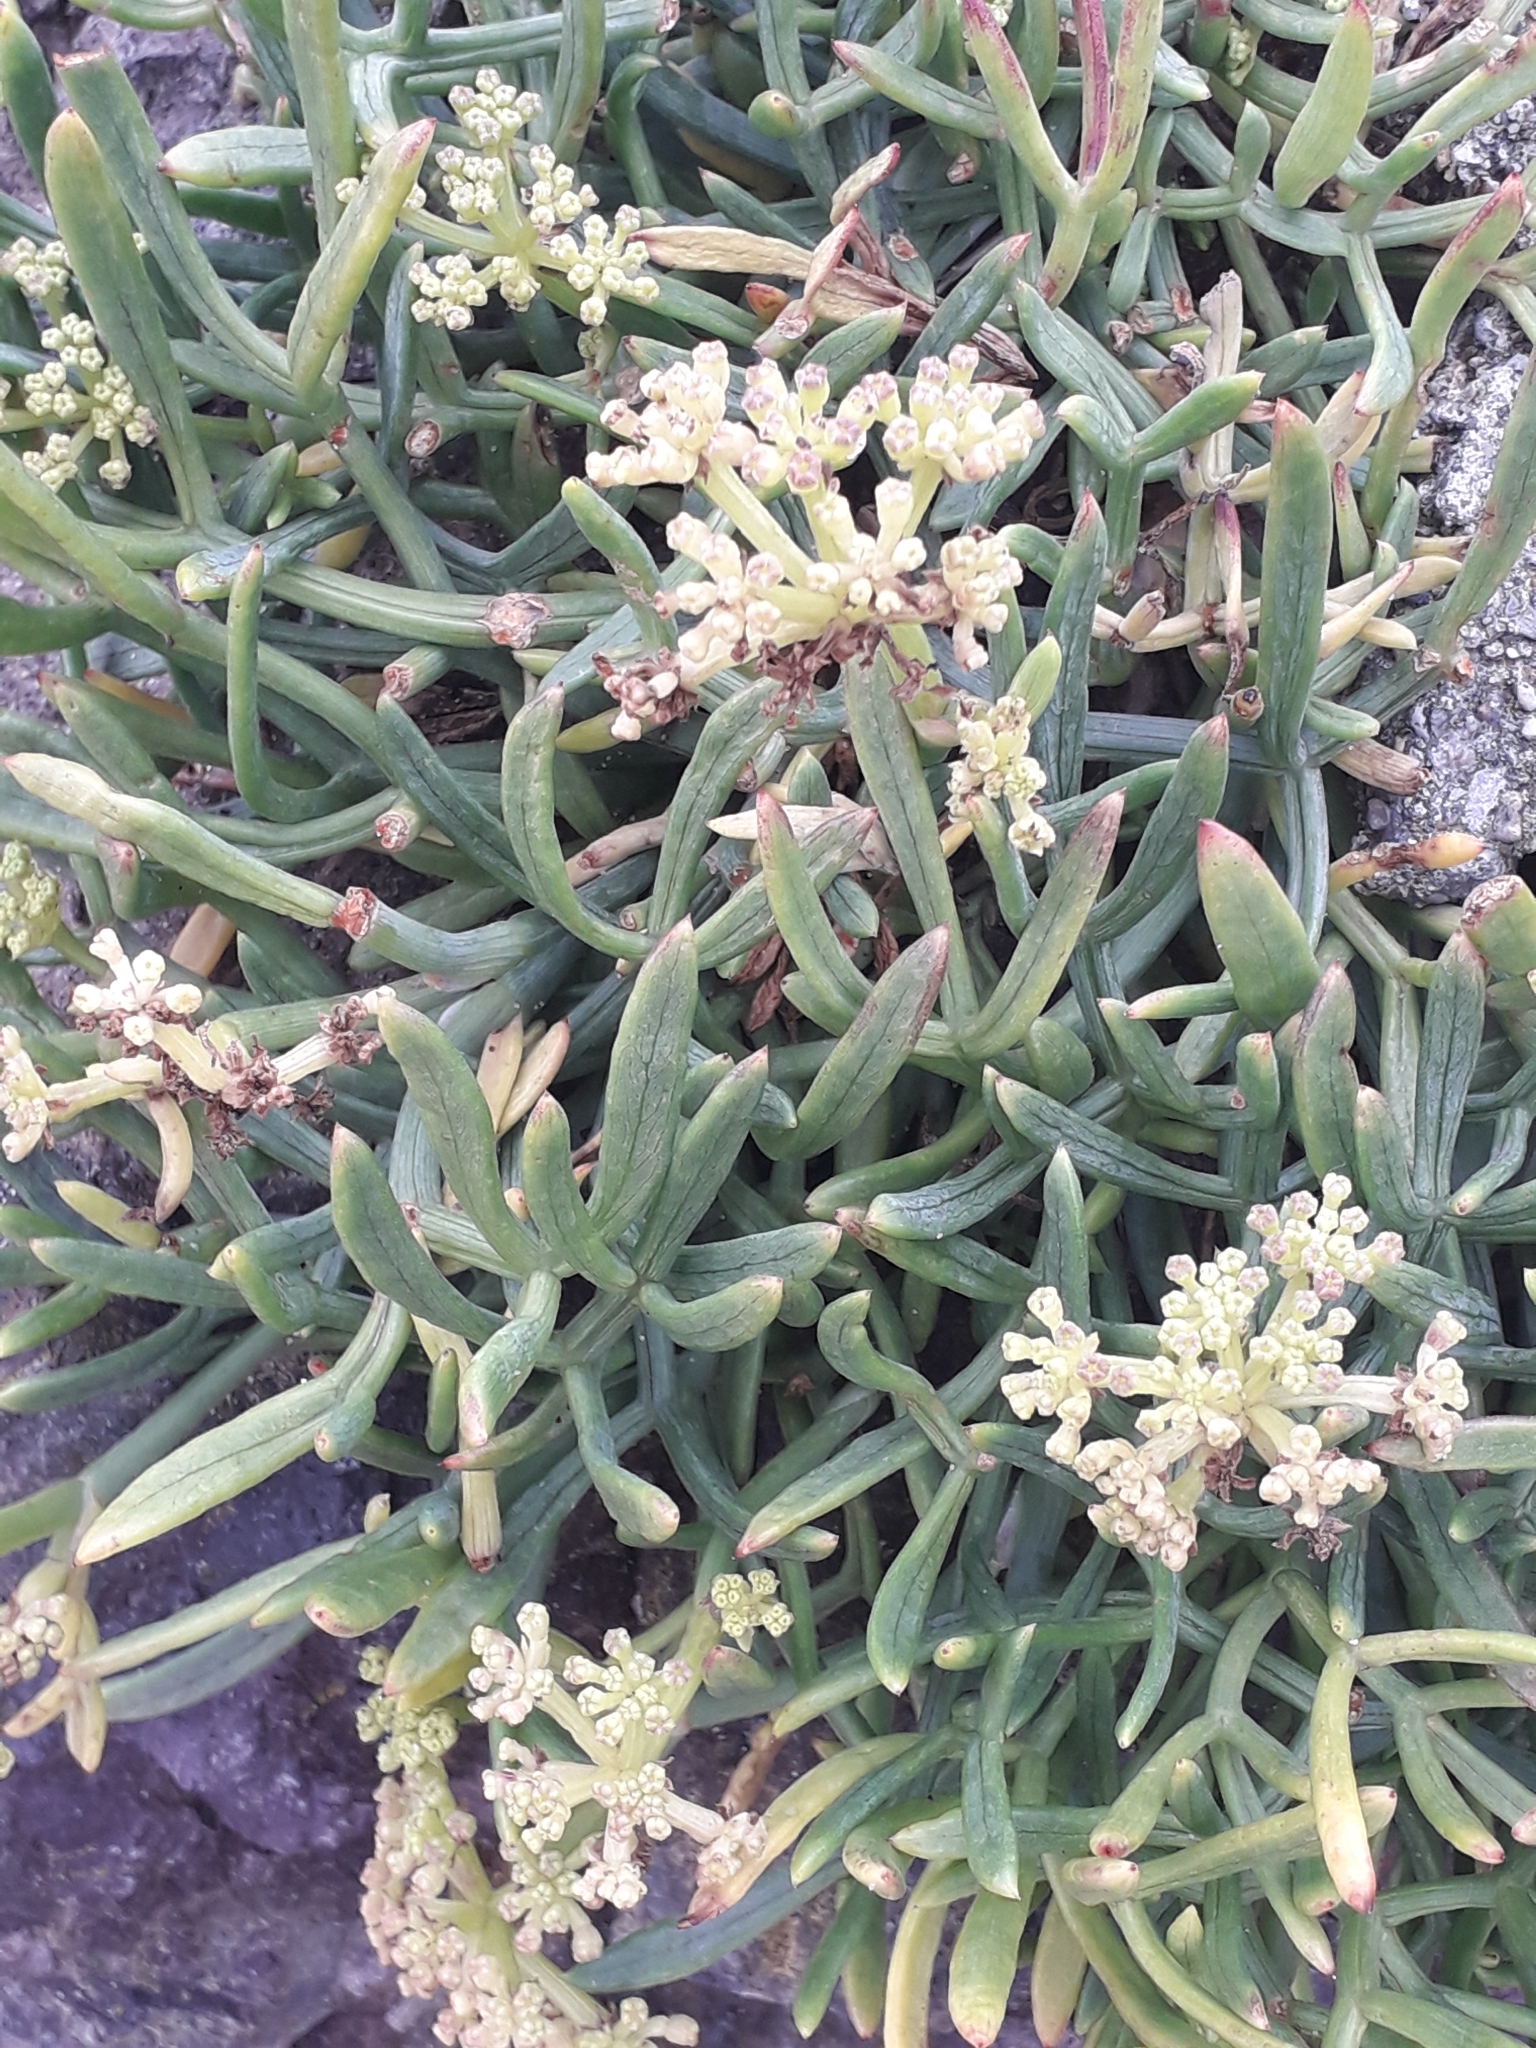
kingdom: Plantae
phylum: Tracheophyta
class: Magnoliopsida
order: Apiales
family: Apiaceae
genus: Crithmum
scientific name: Crithmum maritimum
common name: Rock samphire
